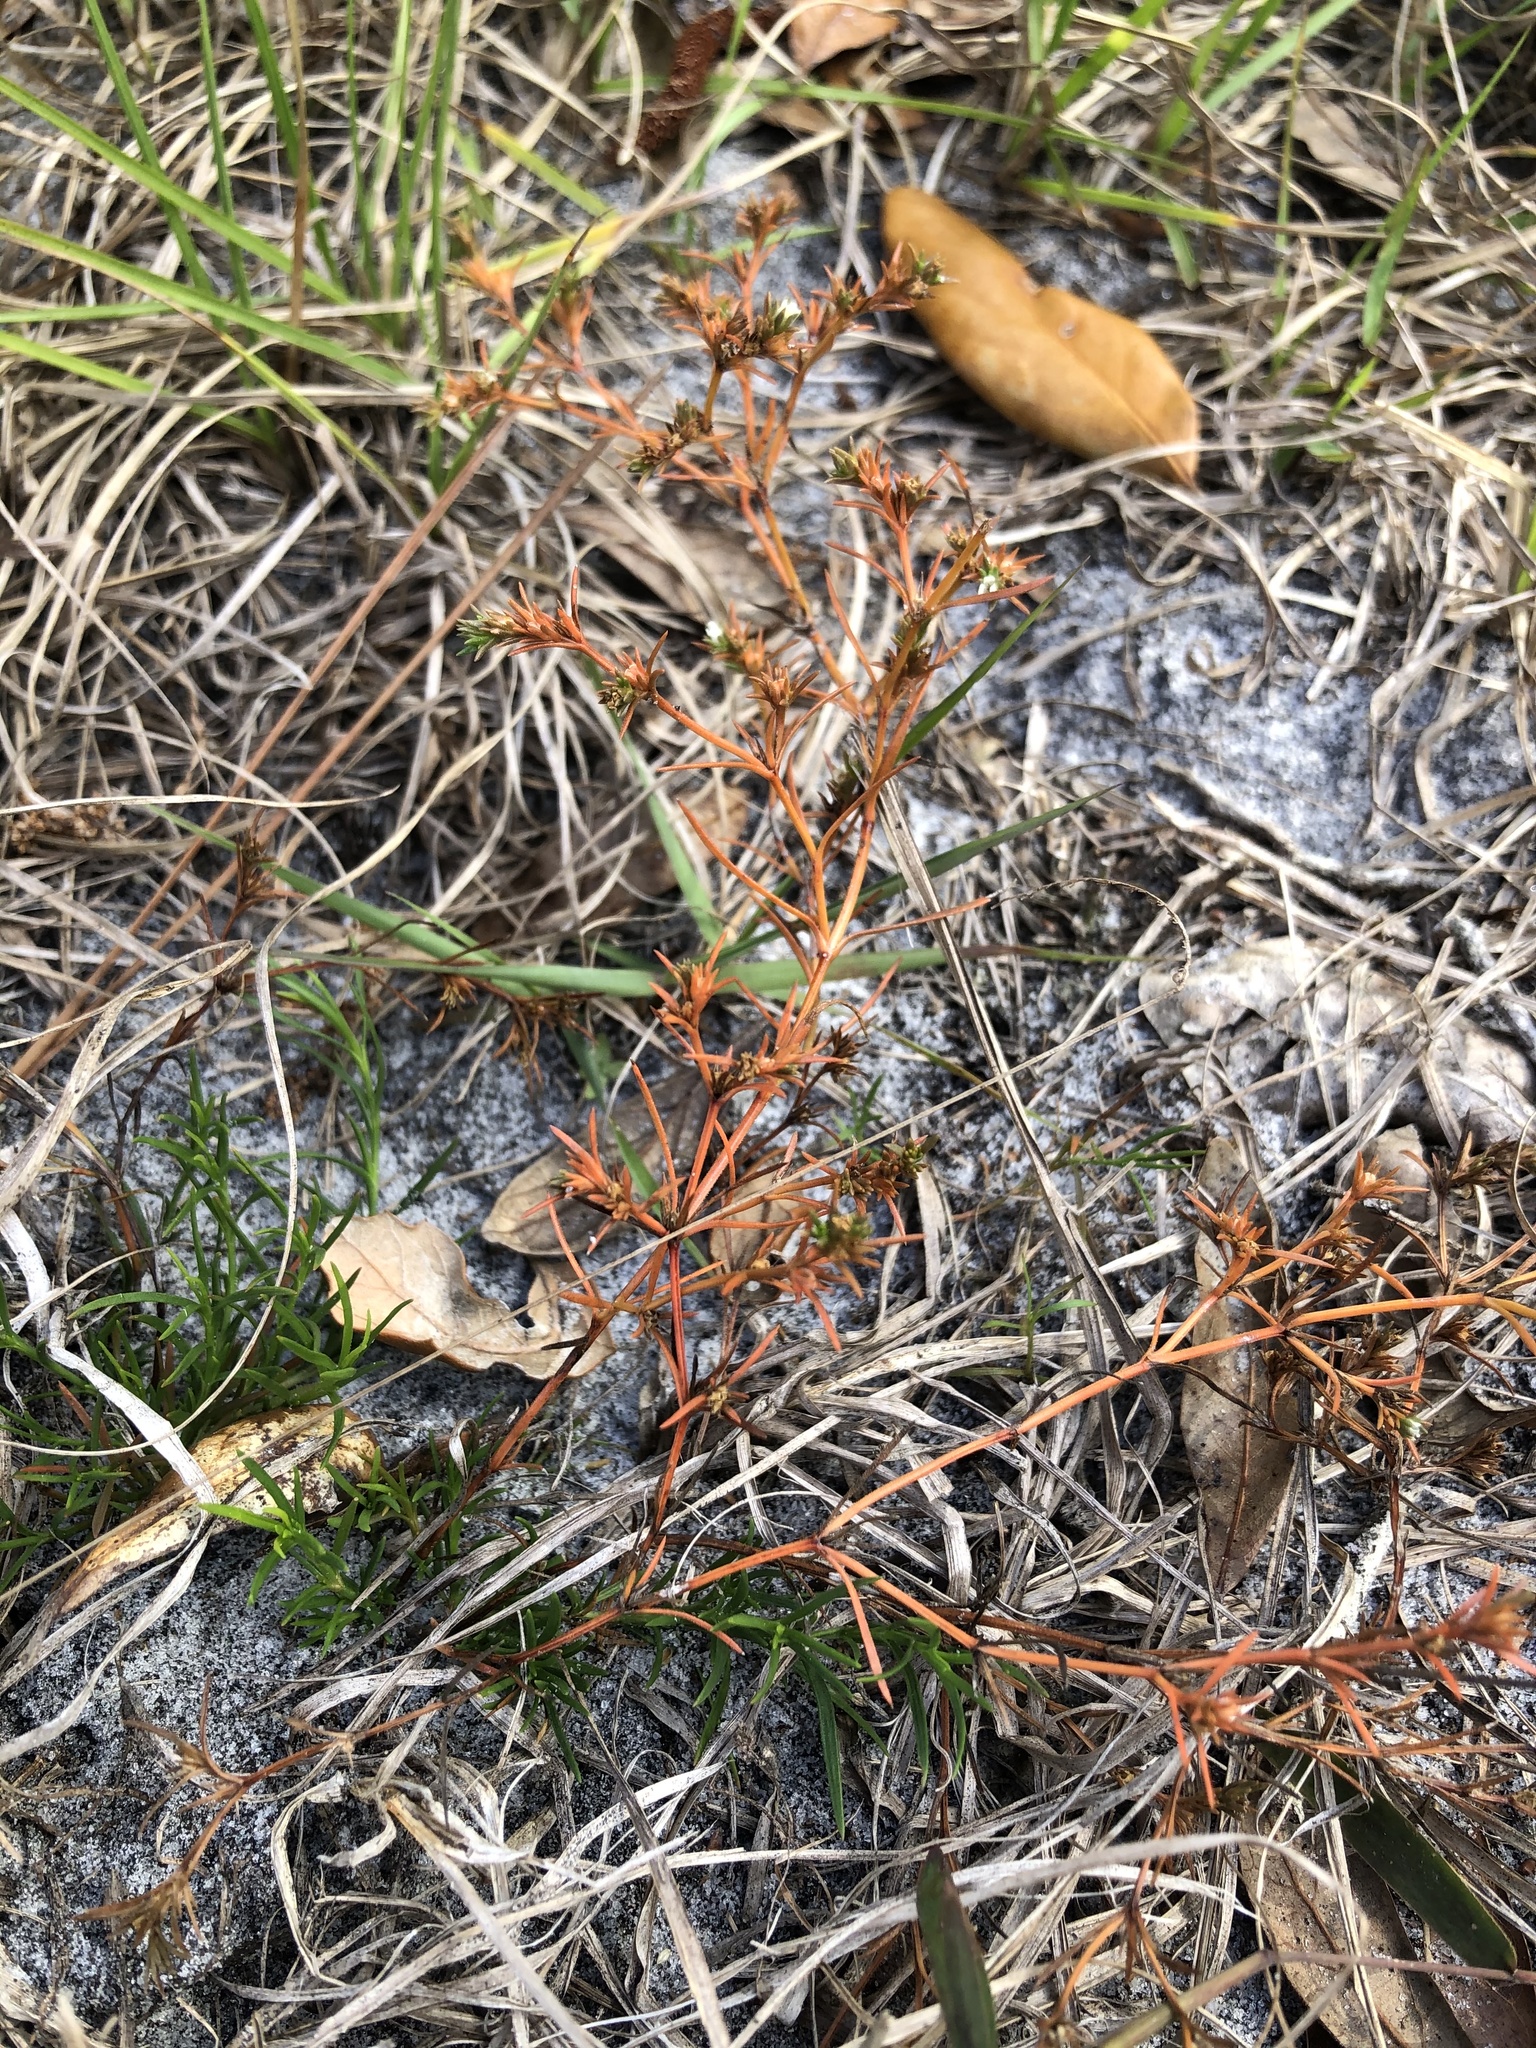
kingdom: Plantae
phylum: Tracheophyta
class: Magnoliopsida
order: Lamiales
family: Tetrachondraceae
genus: Polypremum
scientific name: Polypremum procumbens
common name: Juniper-leaf
